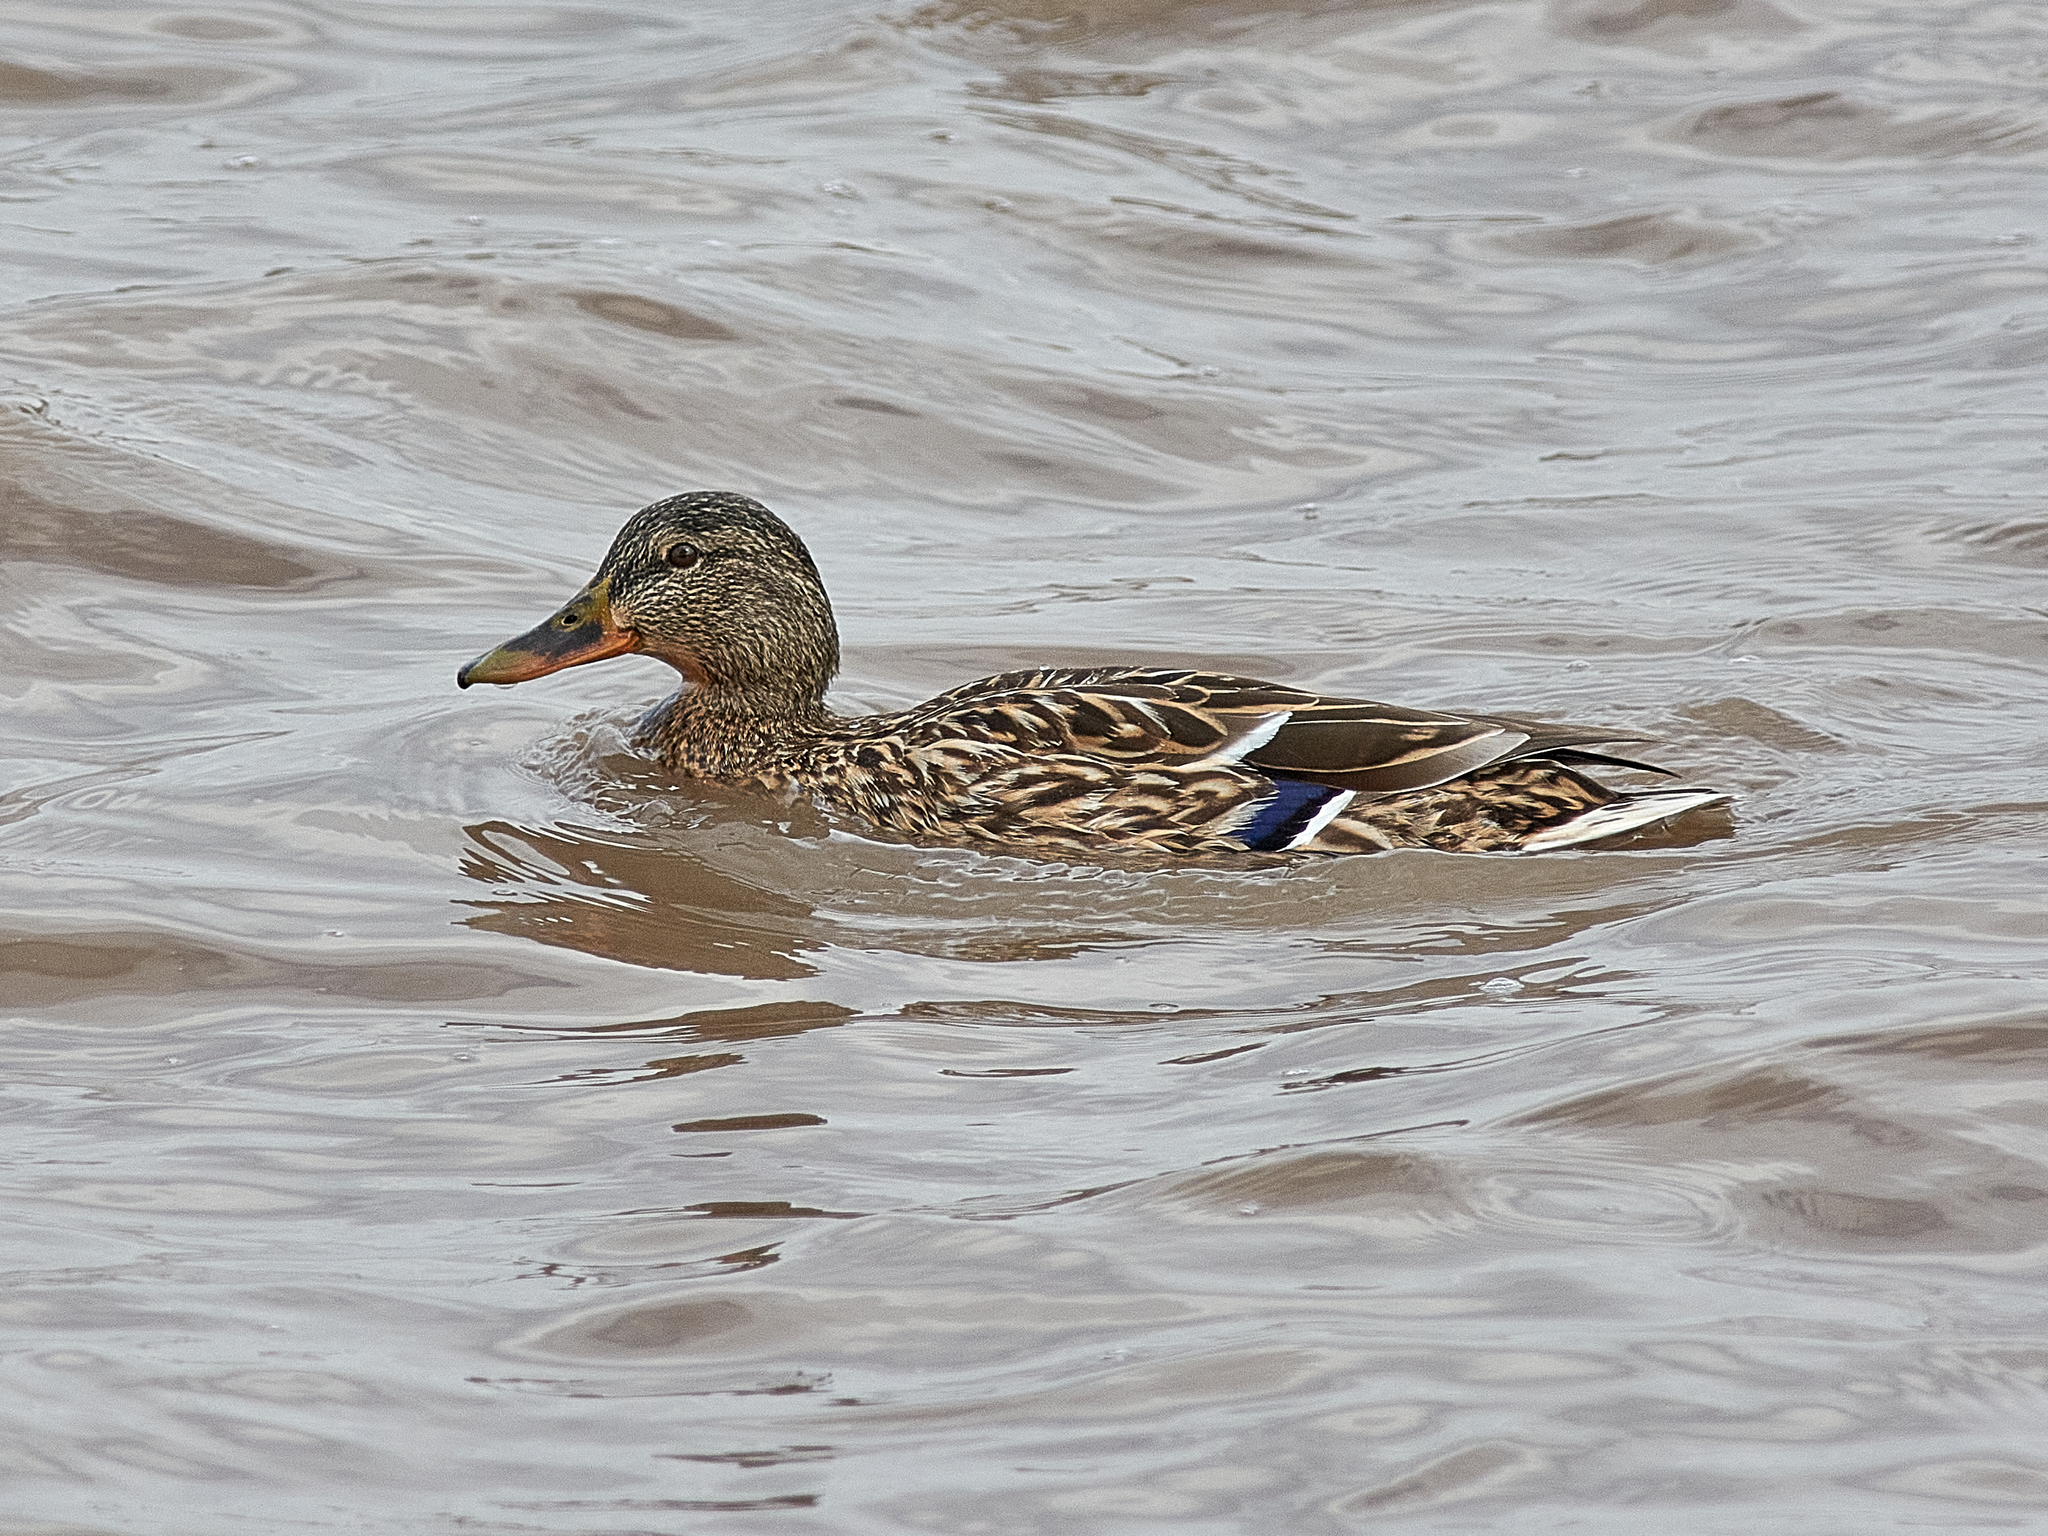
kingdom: Animalia
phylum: Chordata
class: Aves
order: Anseriformes
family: Anatidae
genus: Anas
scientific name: Anas platyrhynchos
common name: Mallard
